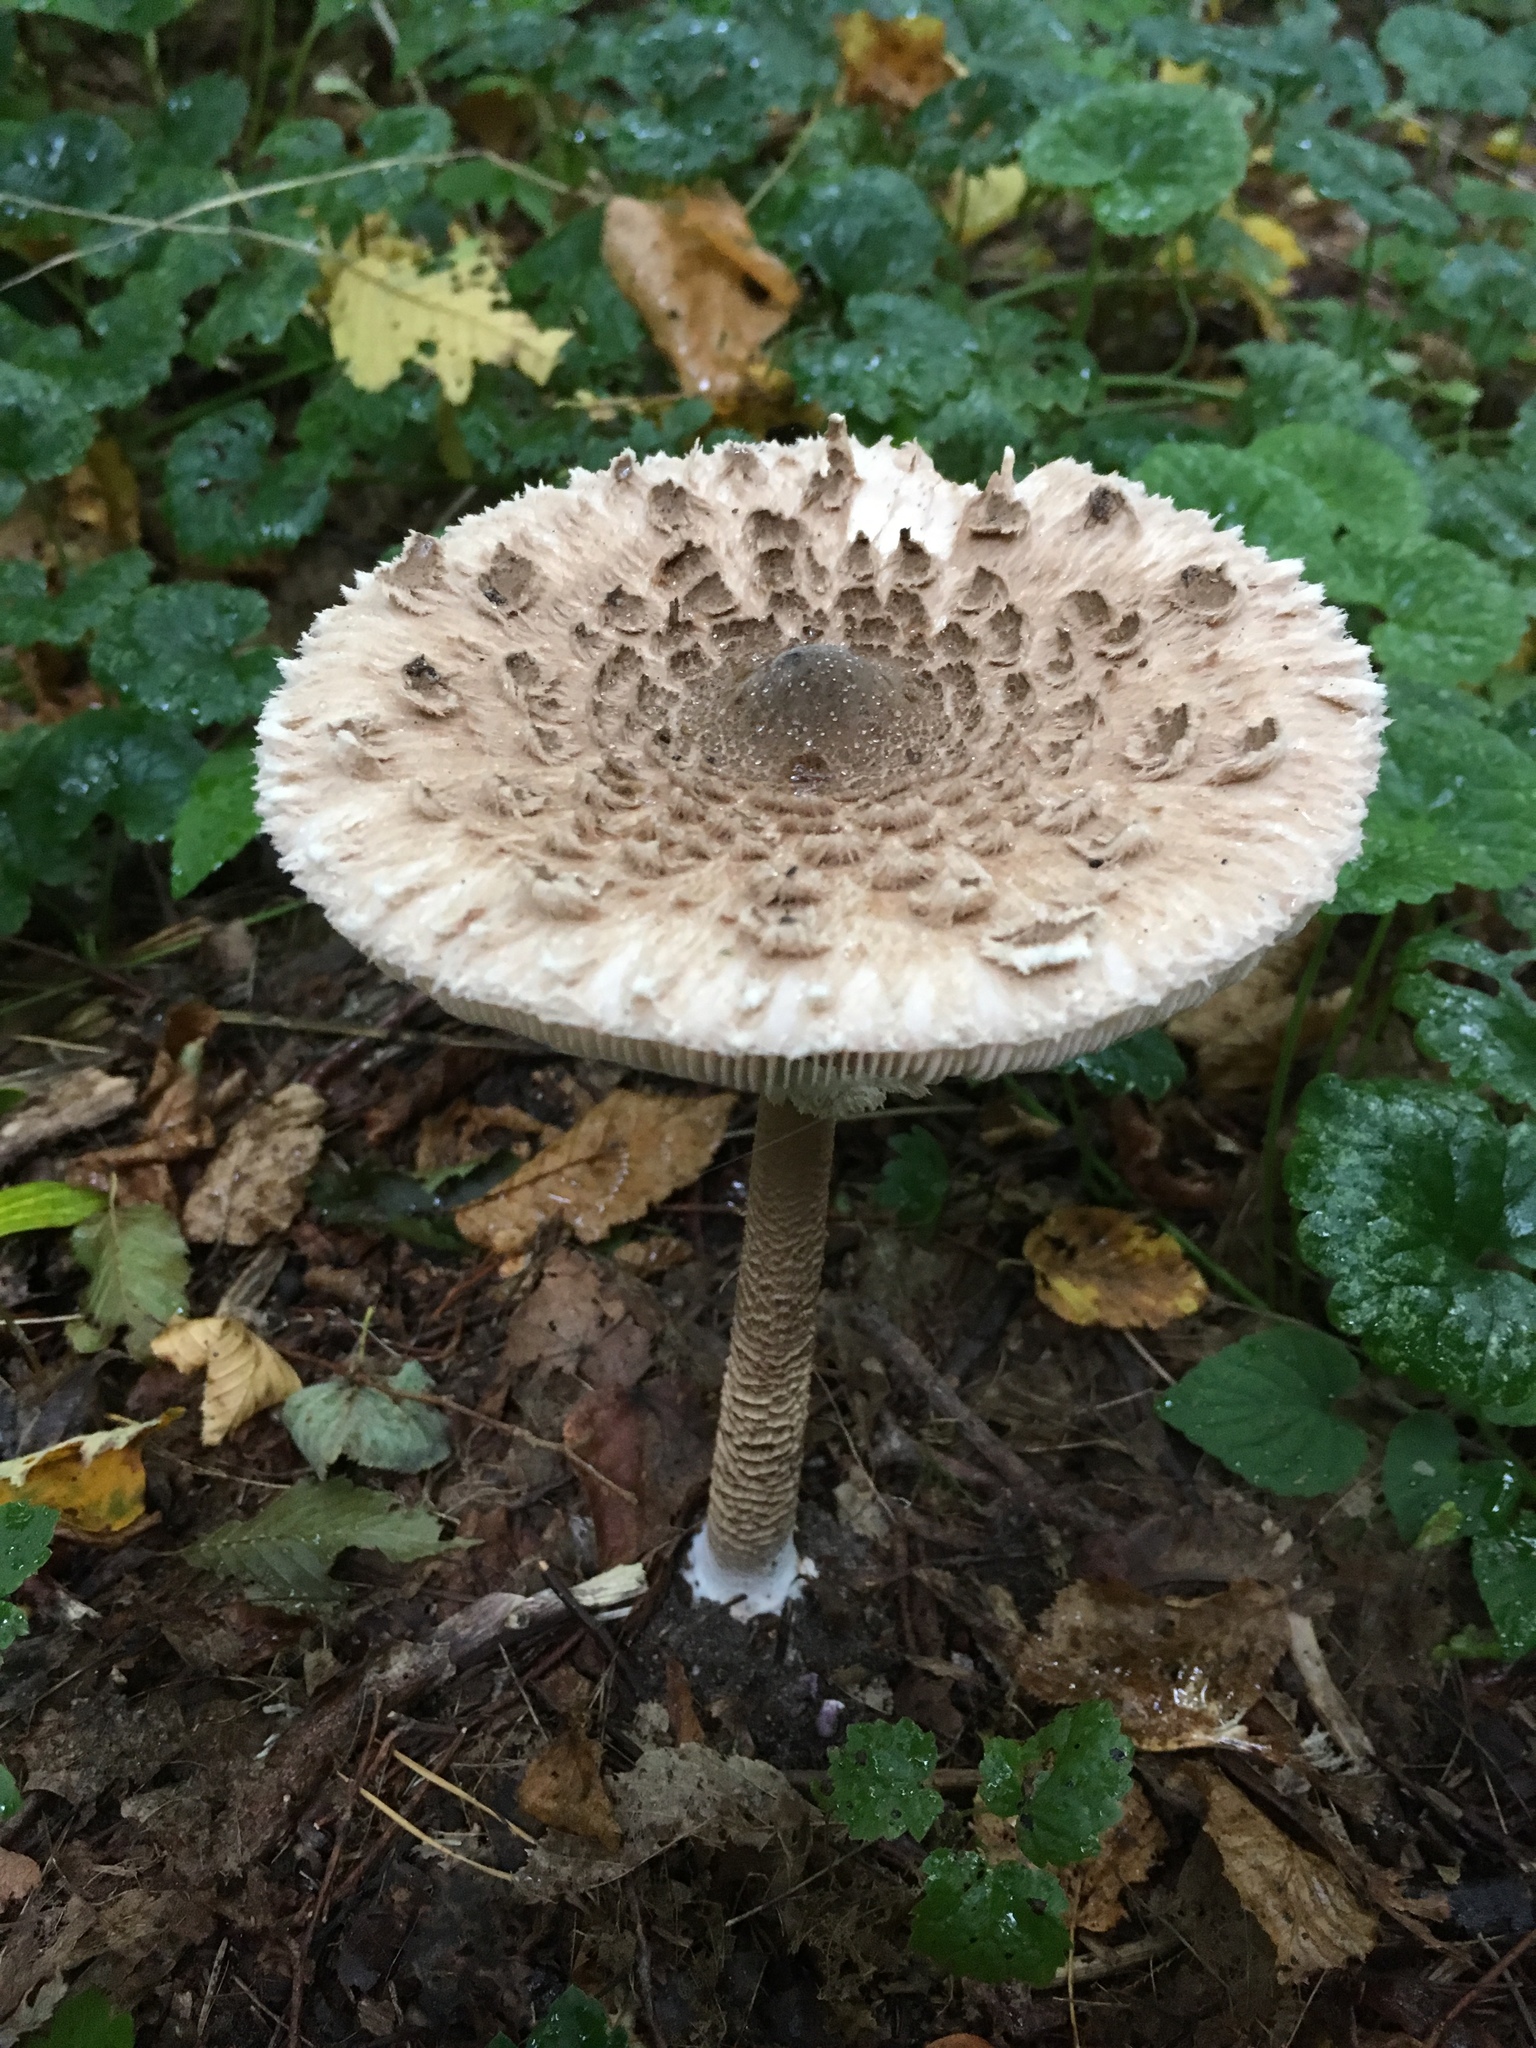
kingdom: Fungi
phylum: Basidiomycota
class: Agaricomycetes
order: Agaricales
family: Agaricaceae
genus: Macrolepiota
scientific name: Macrolepiota procera
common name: Parasol
